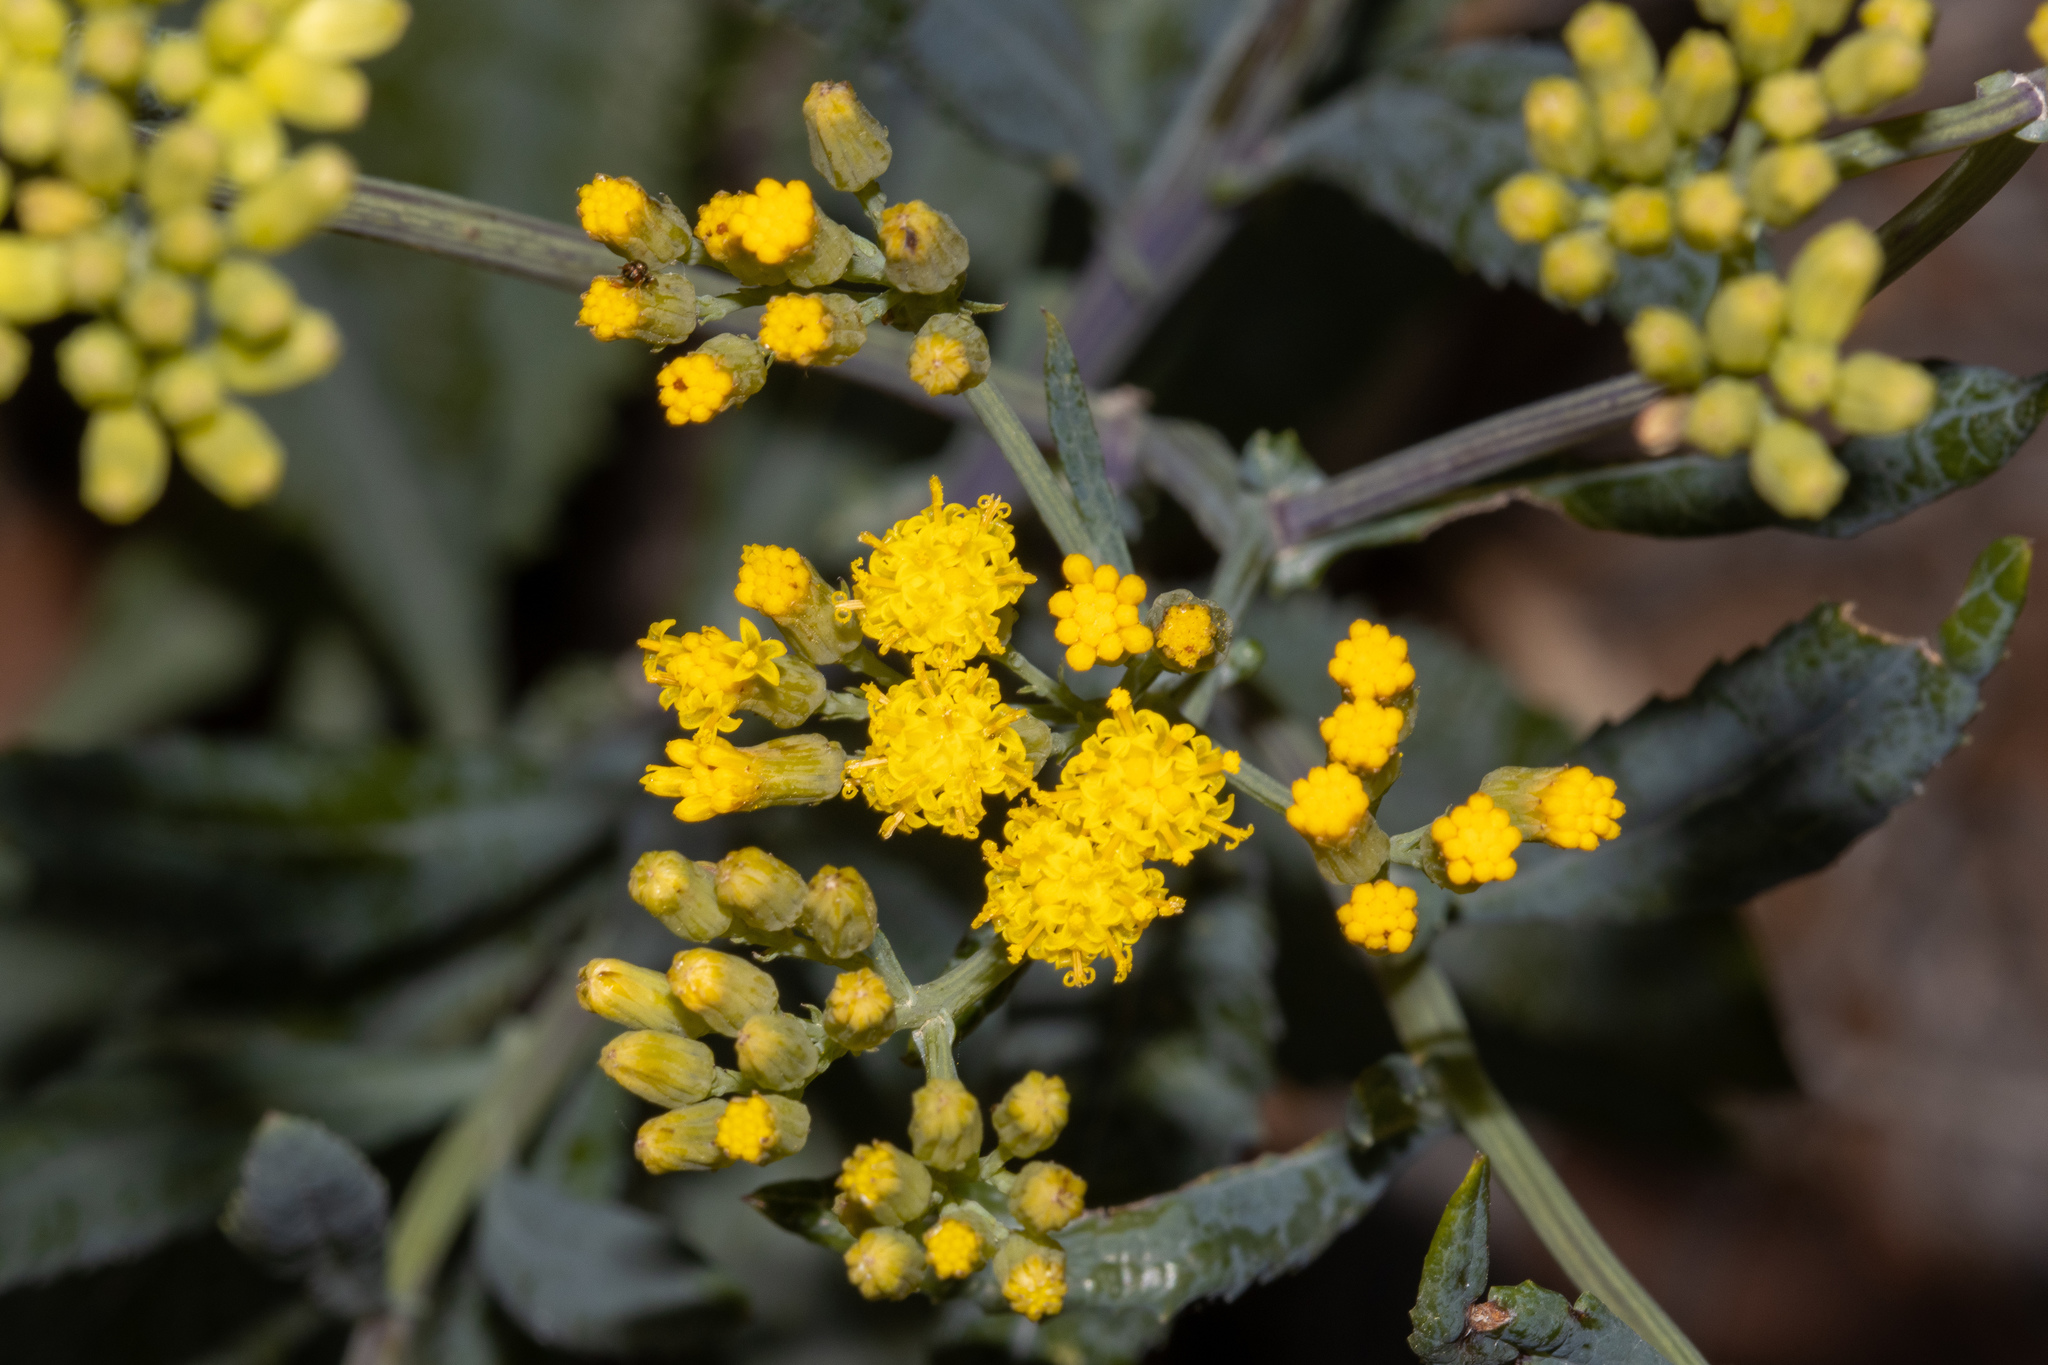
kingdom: Plantae
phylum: Tracheophyta
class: Magnoliopsida
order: Asterales
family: Asteraceae
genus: Senecio
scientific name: Senecio odoratus
